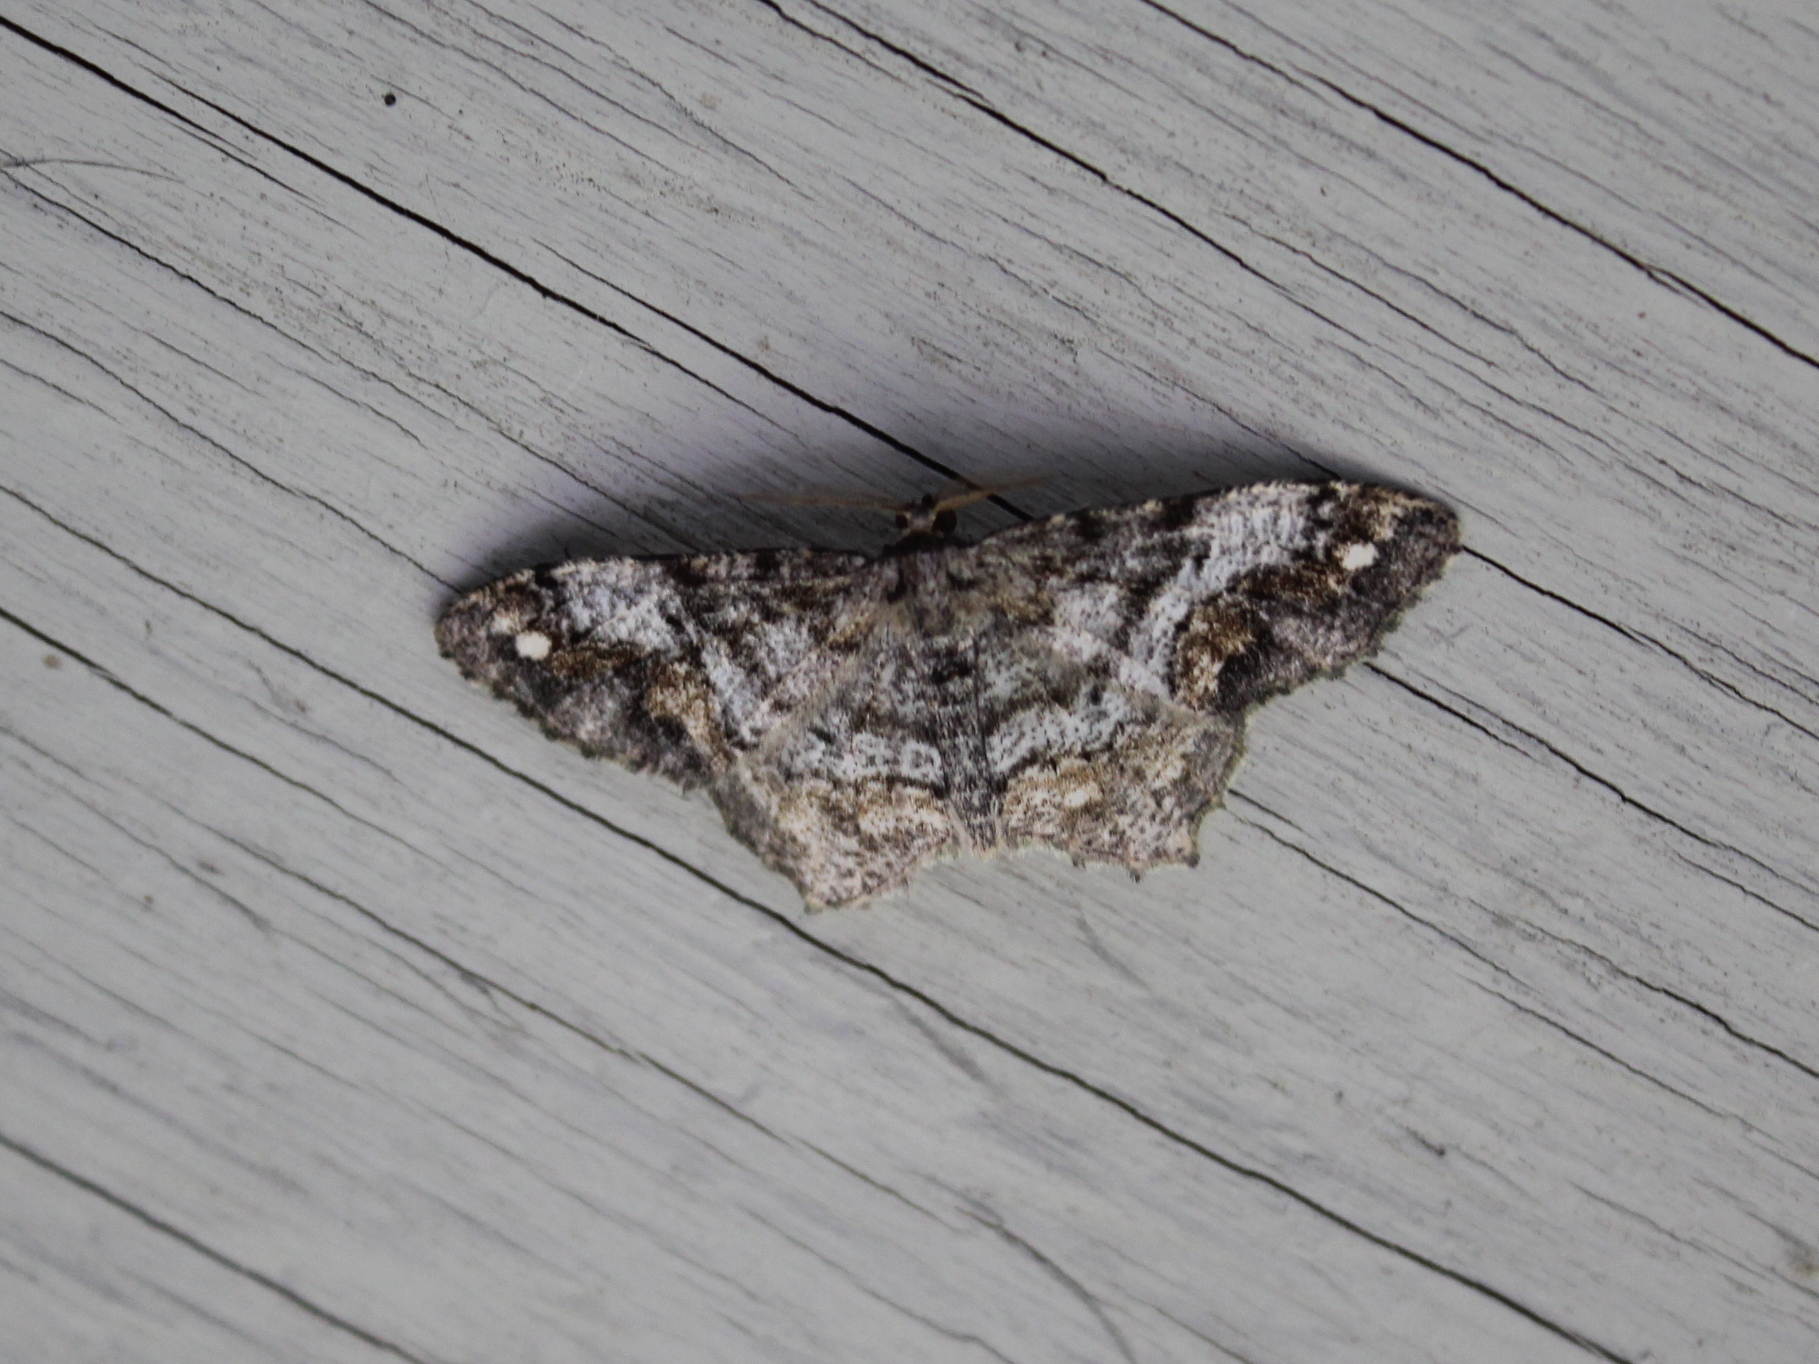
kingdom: Animalia
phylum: Arthropoda
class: Insecta
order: Lepidoptera
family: Geometridae
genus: Hypagyrtis
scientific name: Hypagyrtis unipunctata
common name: One-spotted variant
